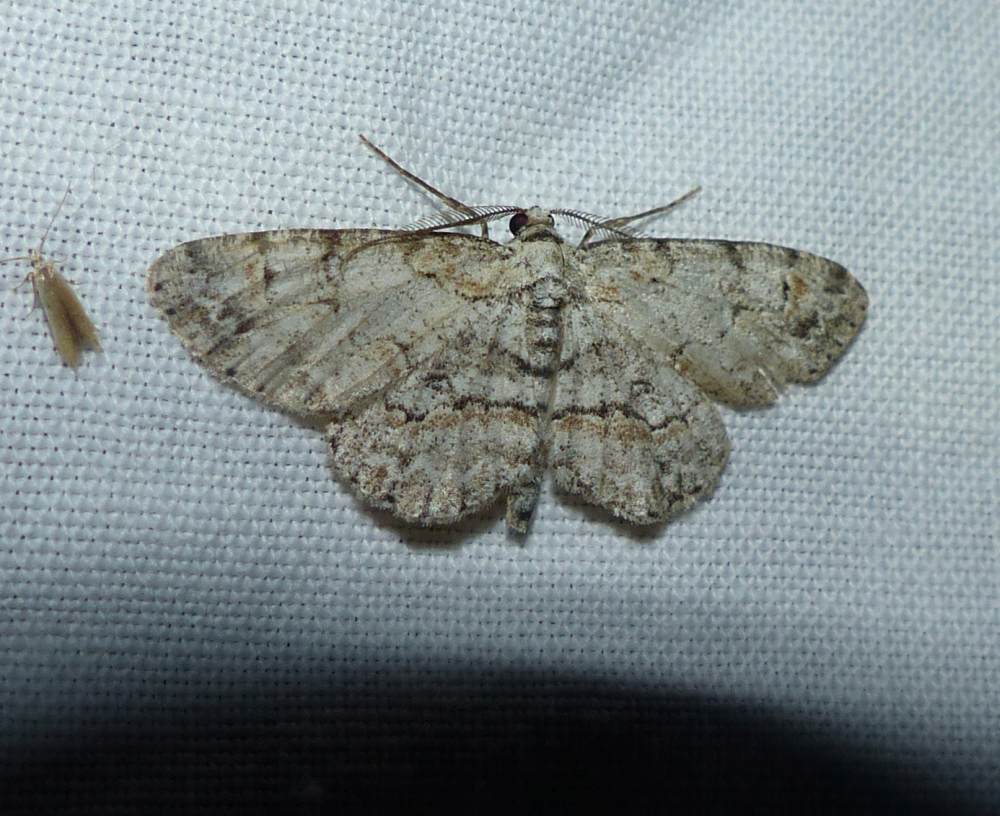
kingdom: Animalia
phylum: Arthropoda
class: Insecta
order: Lepidoptera
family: Geometridae
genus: Iridopsis
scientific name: Iridopsis ephyraria
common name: Pale-winged gray
